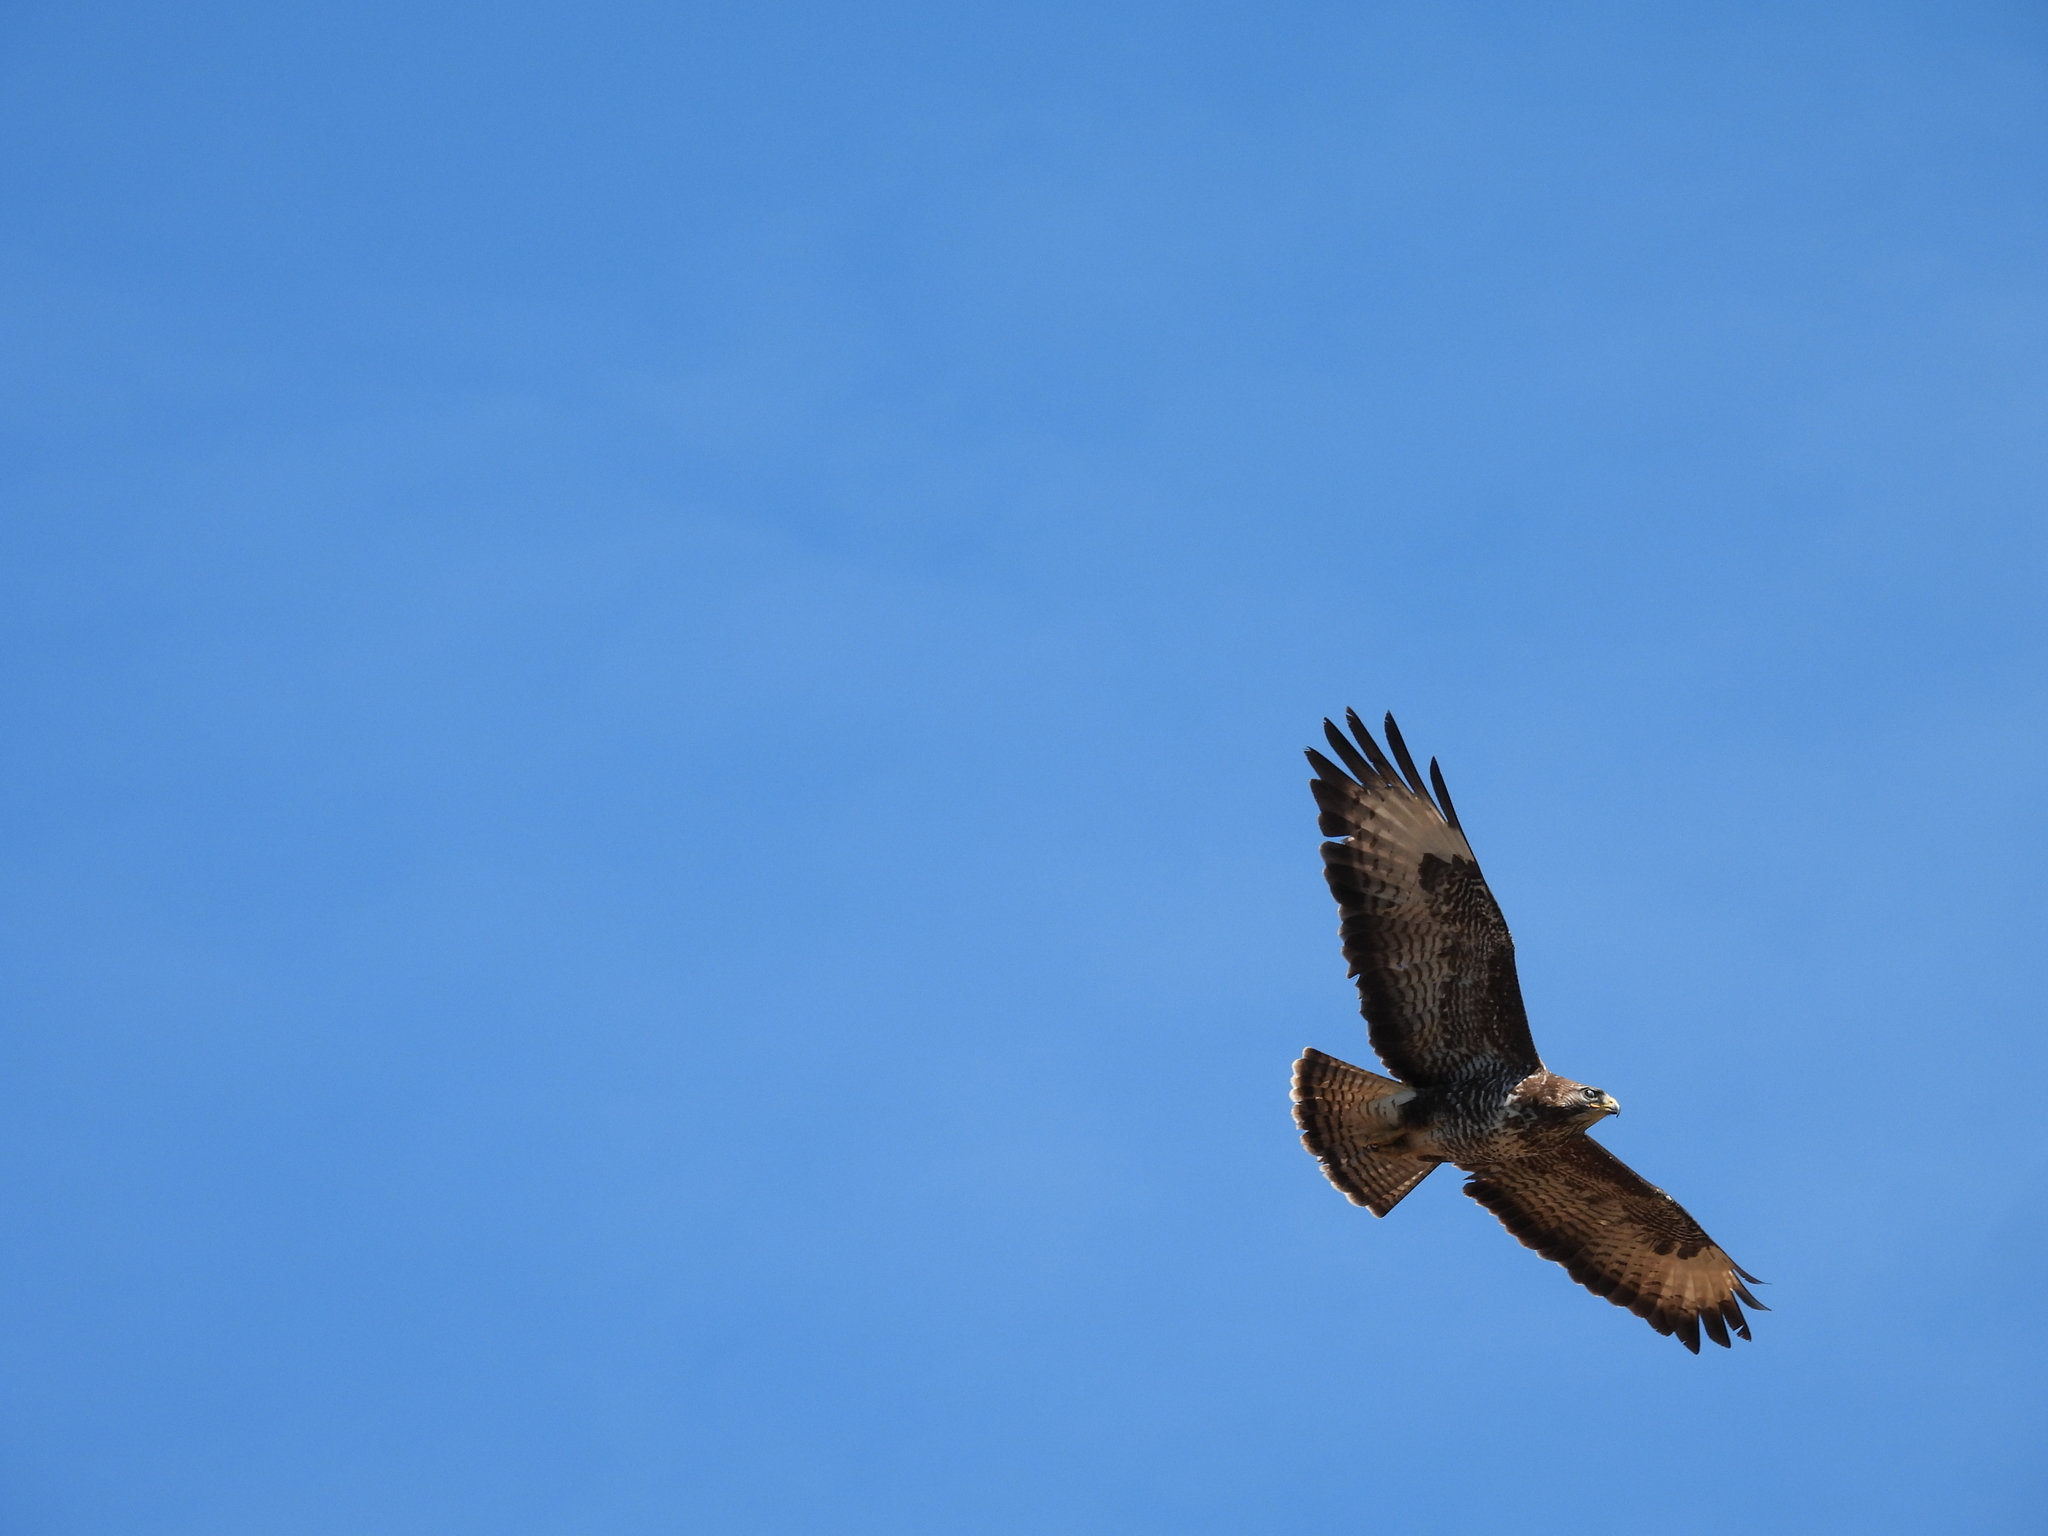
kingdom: Animalia
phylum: Chordata
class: Aves
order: Accipitriformes
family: Accipitridae
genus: Buteo
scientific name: Buteo buteo
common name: Common buzzard
